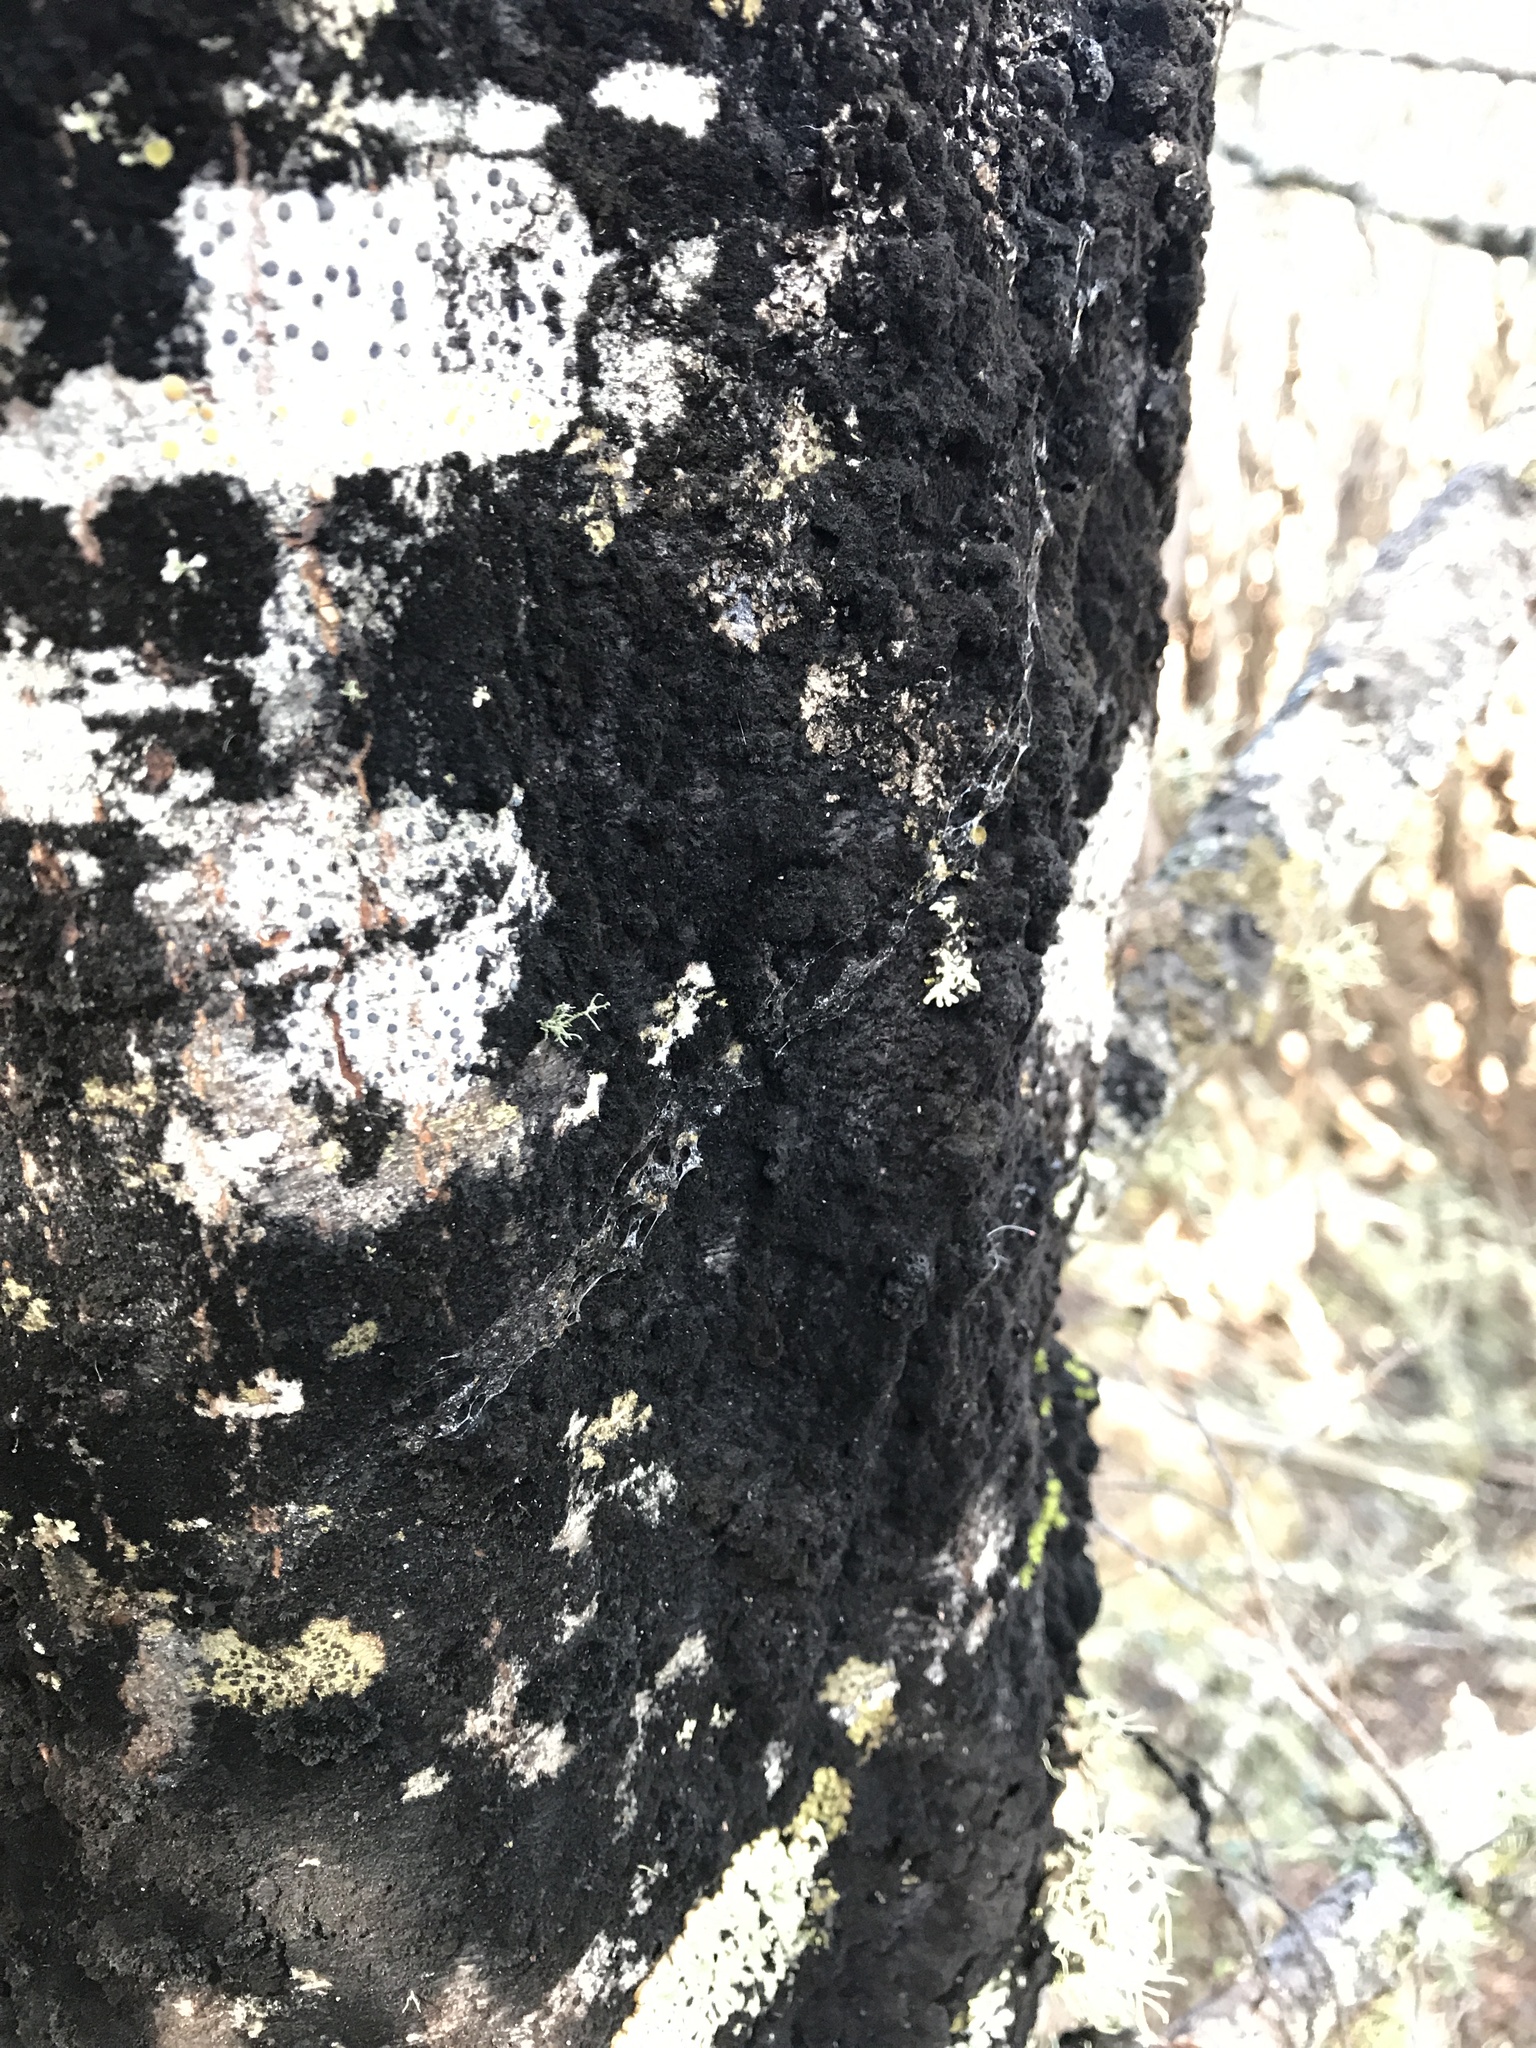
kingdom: Plantae
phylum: Tracheophyta
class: Magnoliopsida
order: Fagales
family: Nothofagaceae
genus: Nothofagus
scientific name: Nothofagus cliffortioides
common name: Mountain beech
